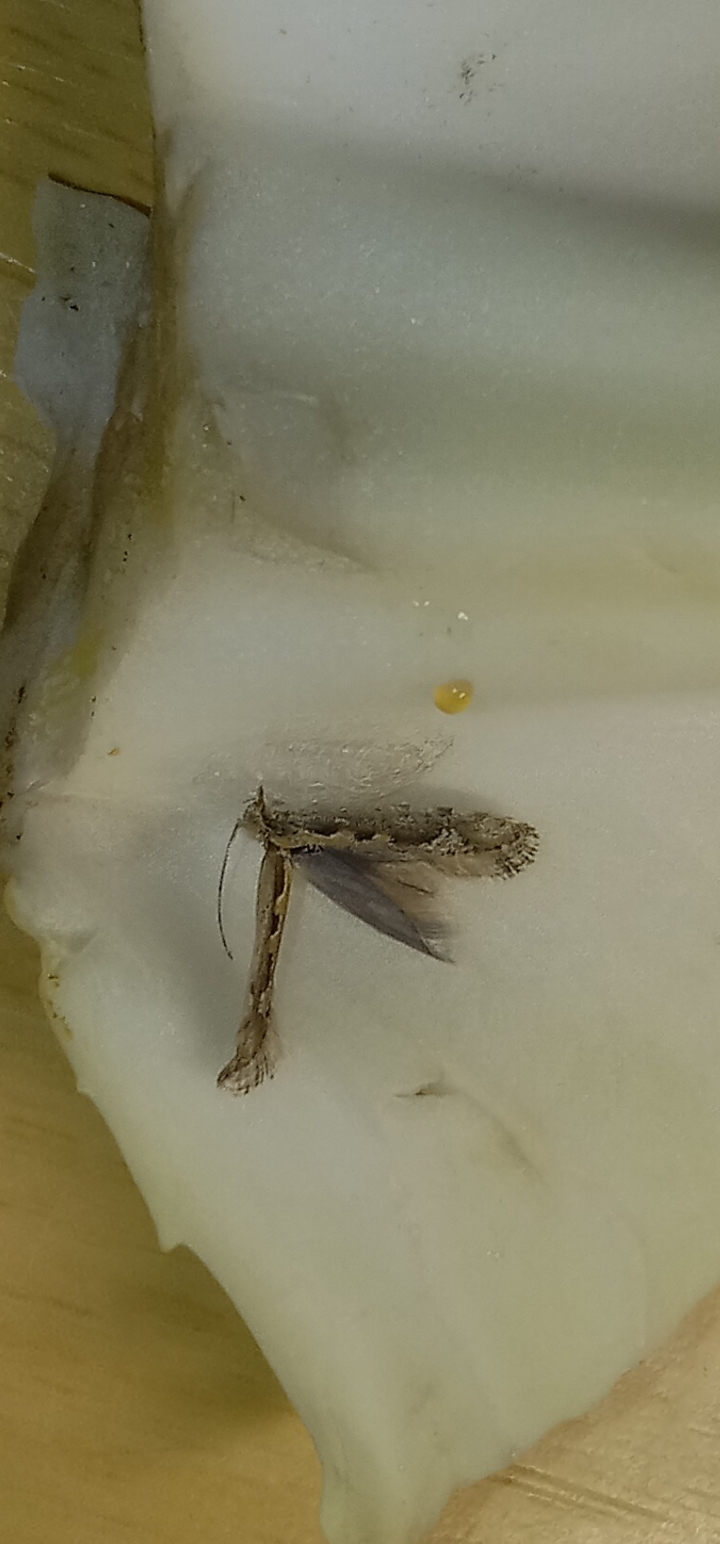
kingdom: Animalia
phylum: Arthropoda
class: Insecta
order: Lepidoptera
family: Plutellidae
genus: Plutella
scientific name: Plutella xylostella
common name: Diamond-back moth
